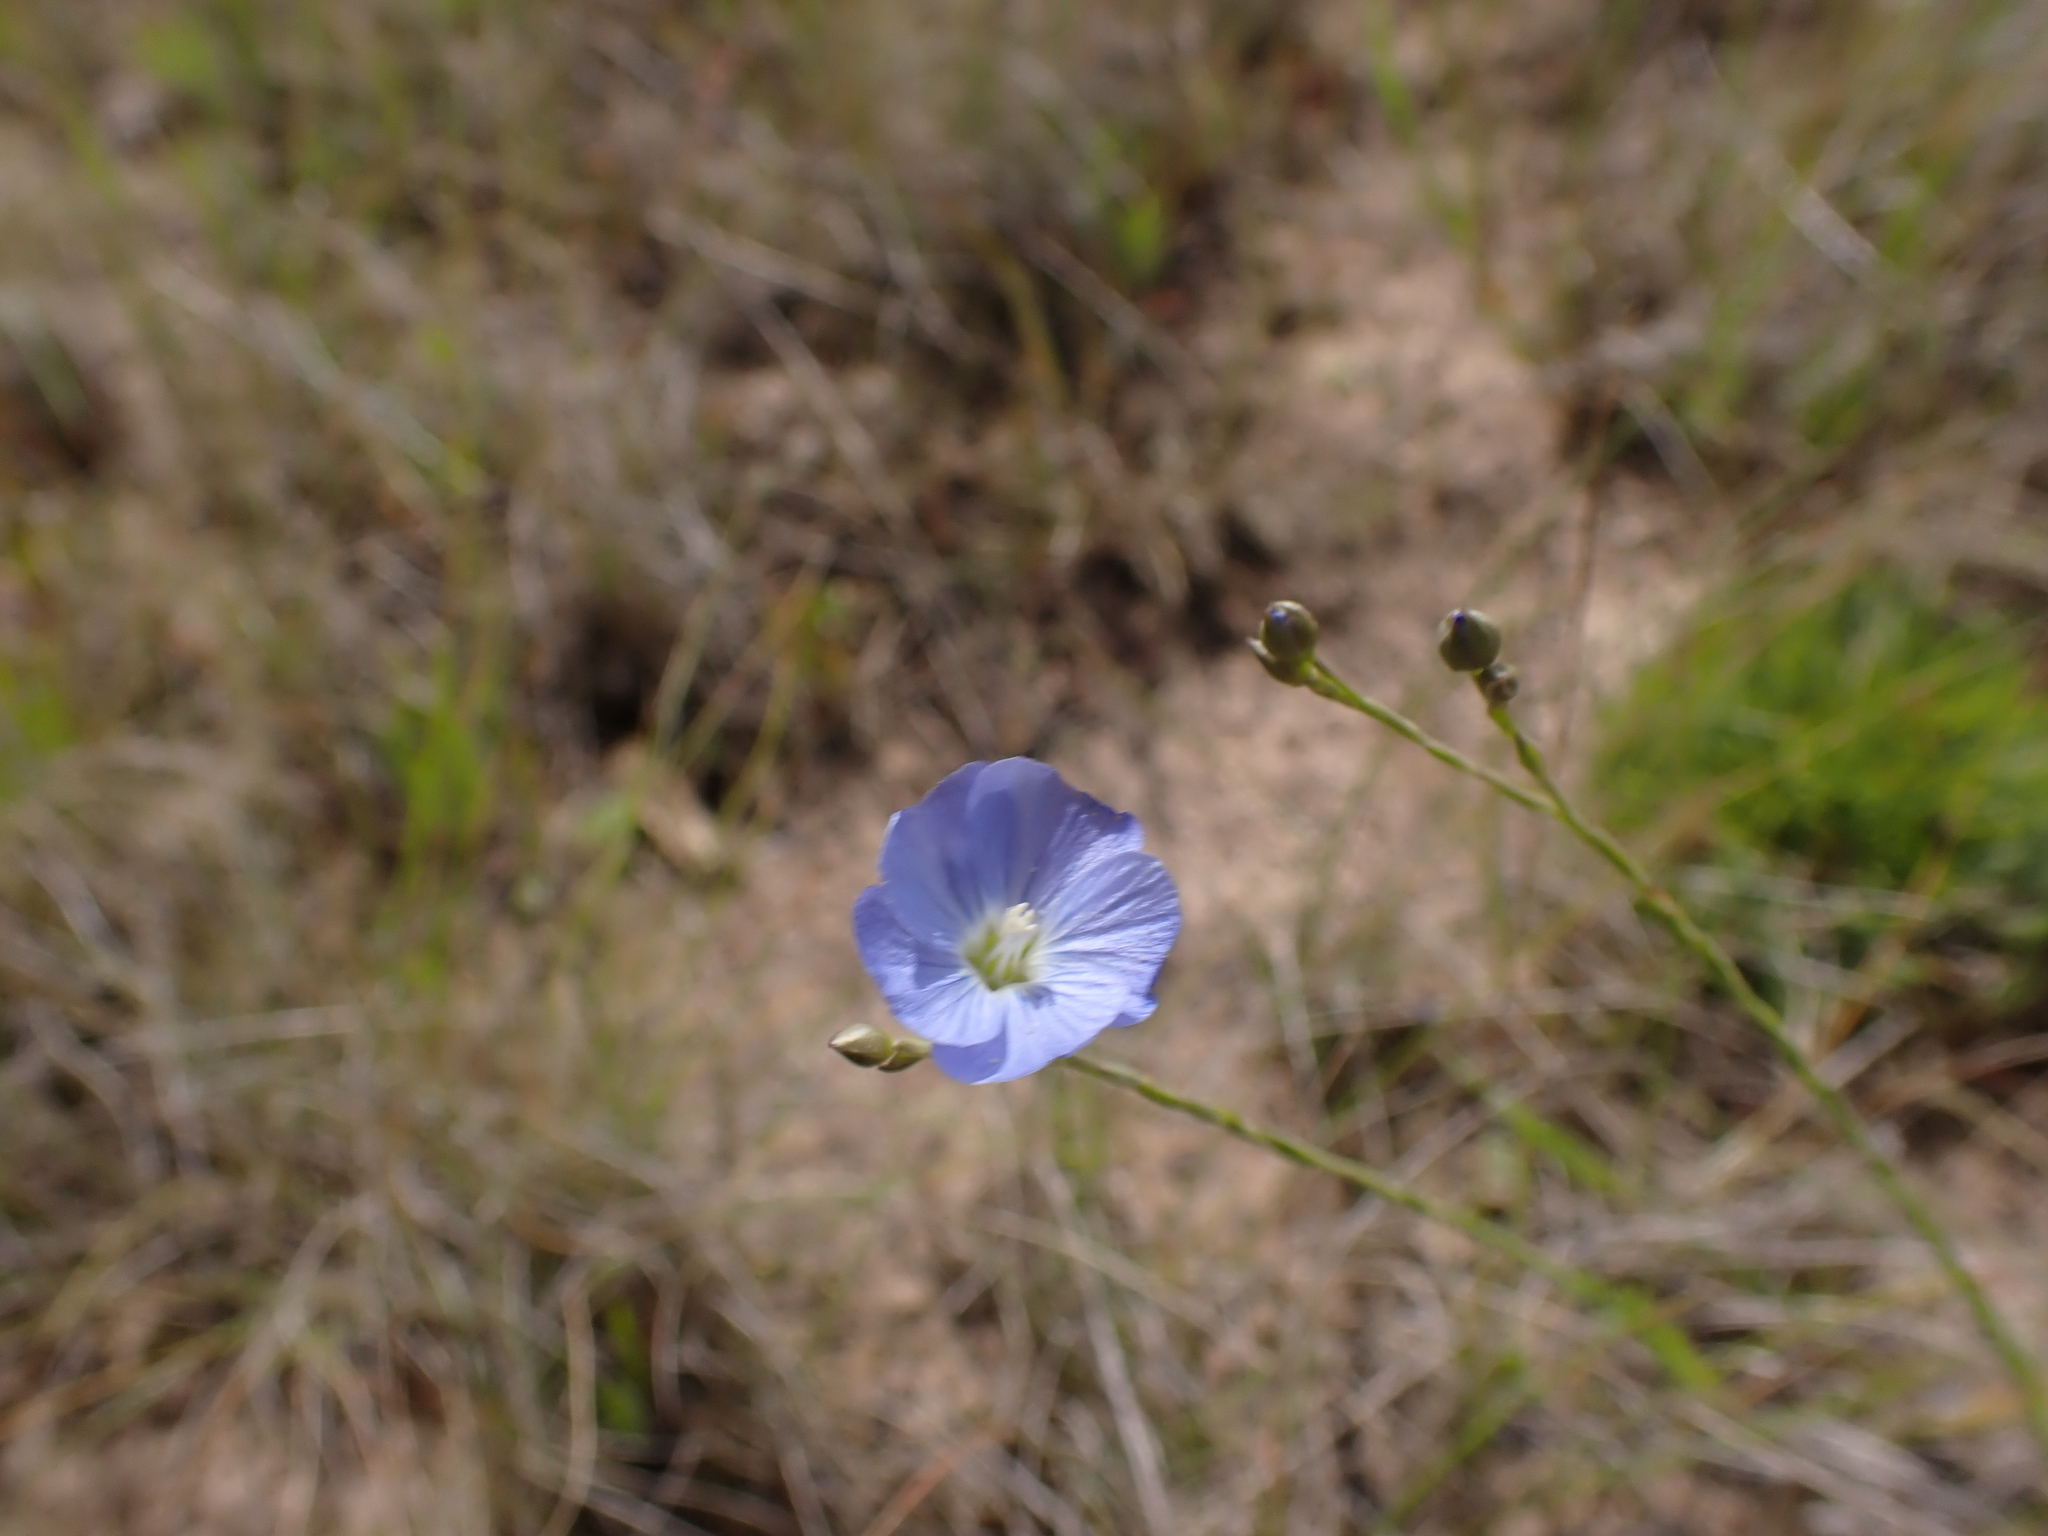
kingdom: Plantae
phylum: Tracheophyta
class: Magnoliopsida
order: Malpighiales
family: Linaceae
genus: Linum
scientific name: Linum marginale
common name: Wild flax
